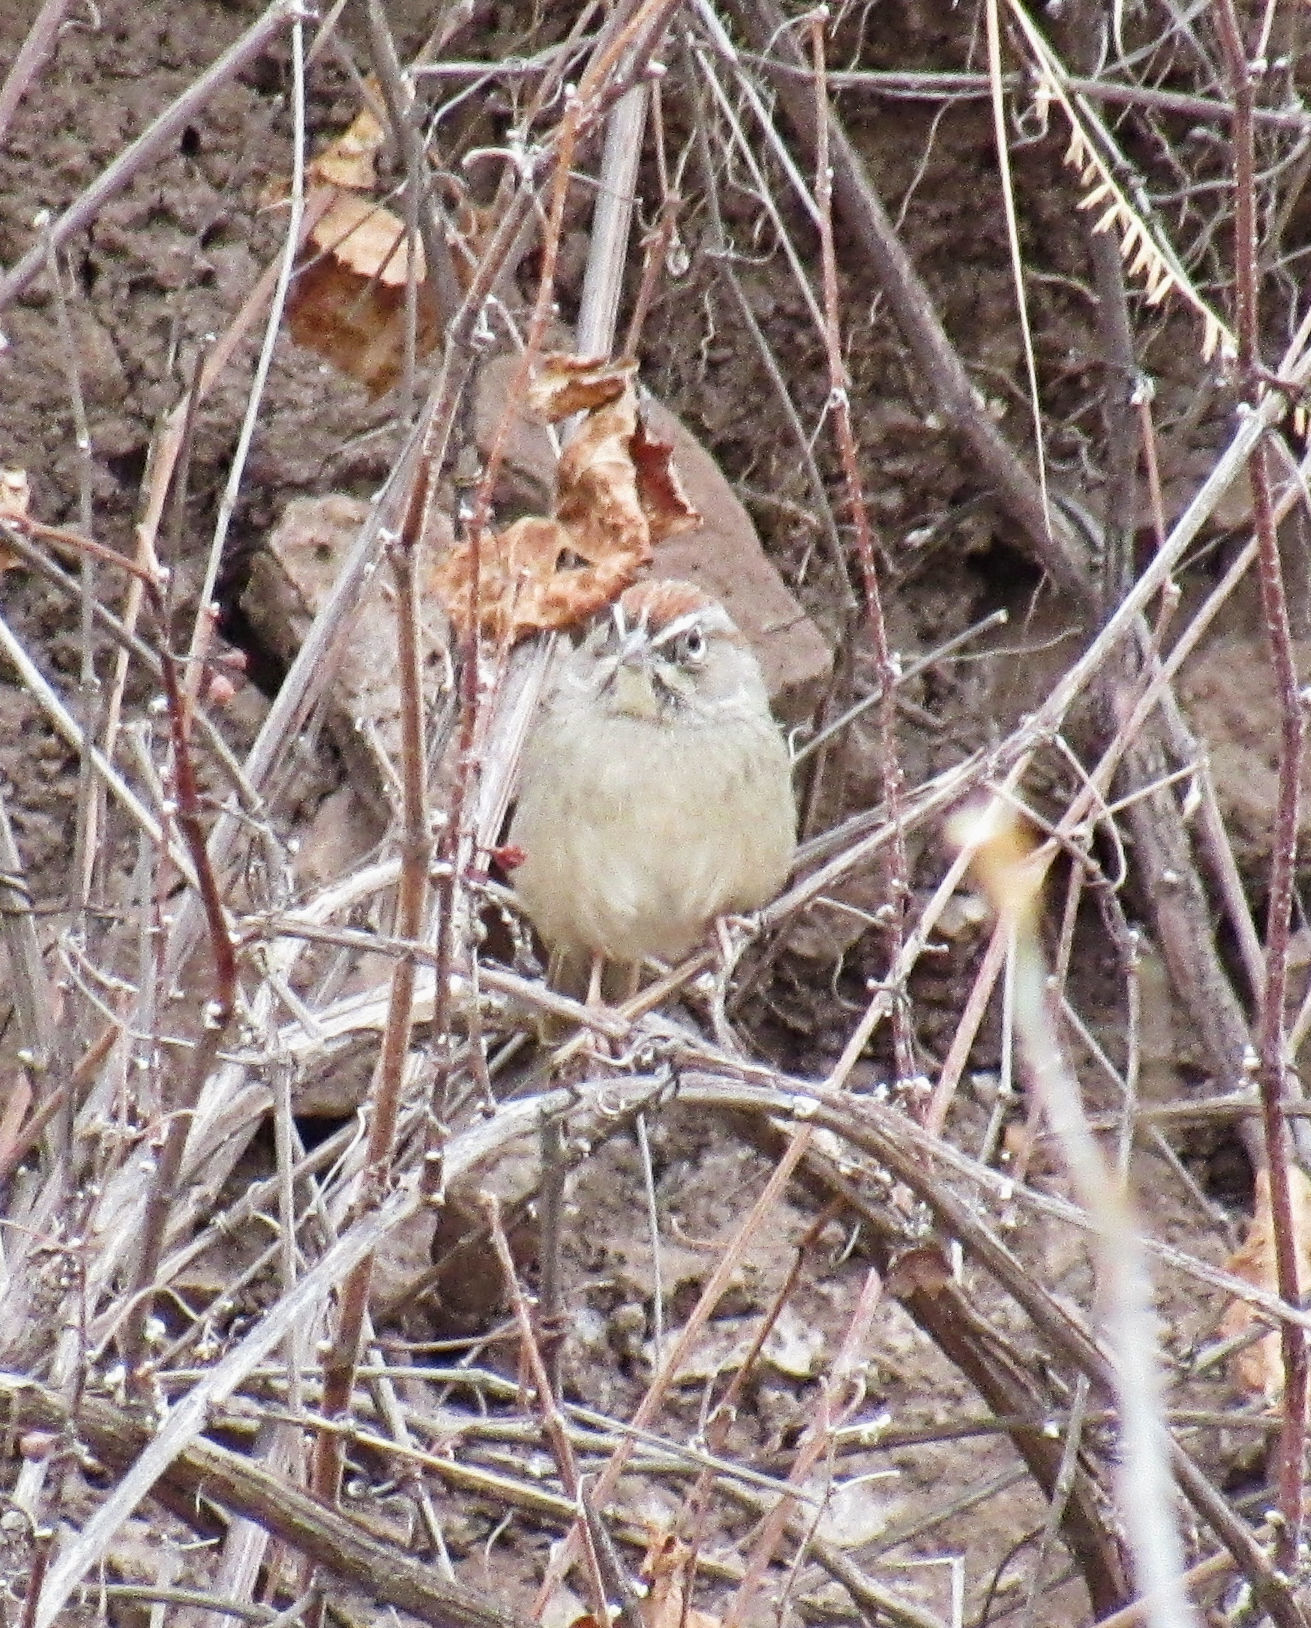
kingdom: Animalia
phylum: Chordata
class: Aves
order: Passeriformes
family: Passerellidae
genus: Aimophila
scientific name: Aimophila ruficeps
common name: Rufous-crowned sparrow
